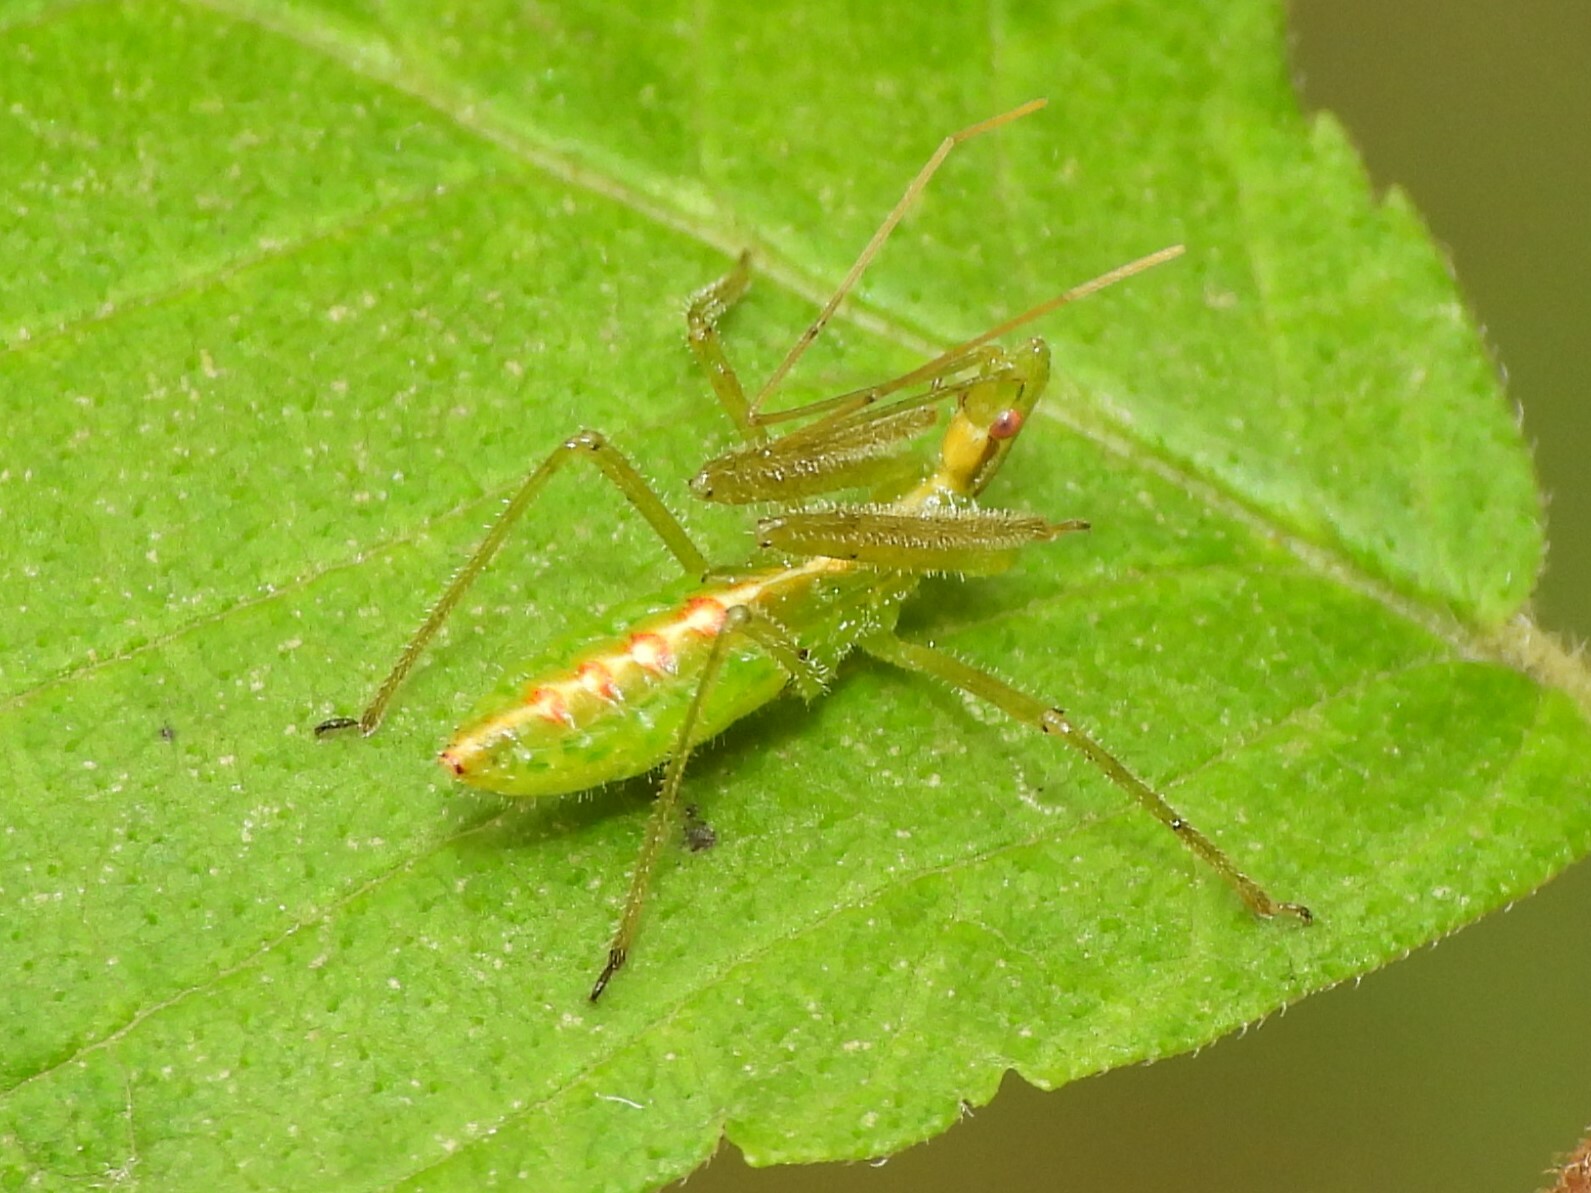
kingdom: Animalia
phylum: Arthropoda
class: Insecta
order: Hemiptera
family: Reduviidae
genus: Zelus
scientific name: Zelus luridus
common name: Pale green assassin bug
